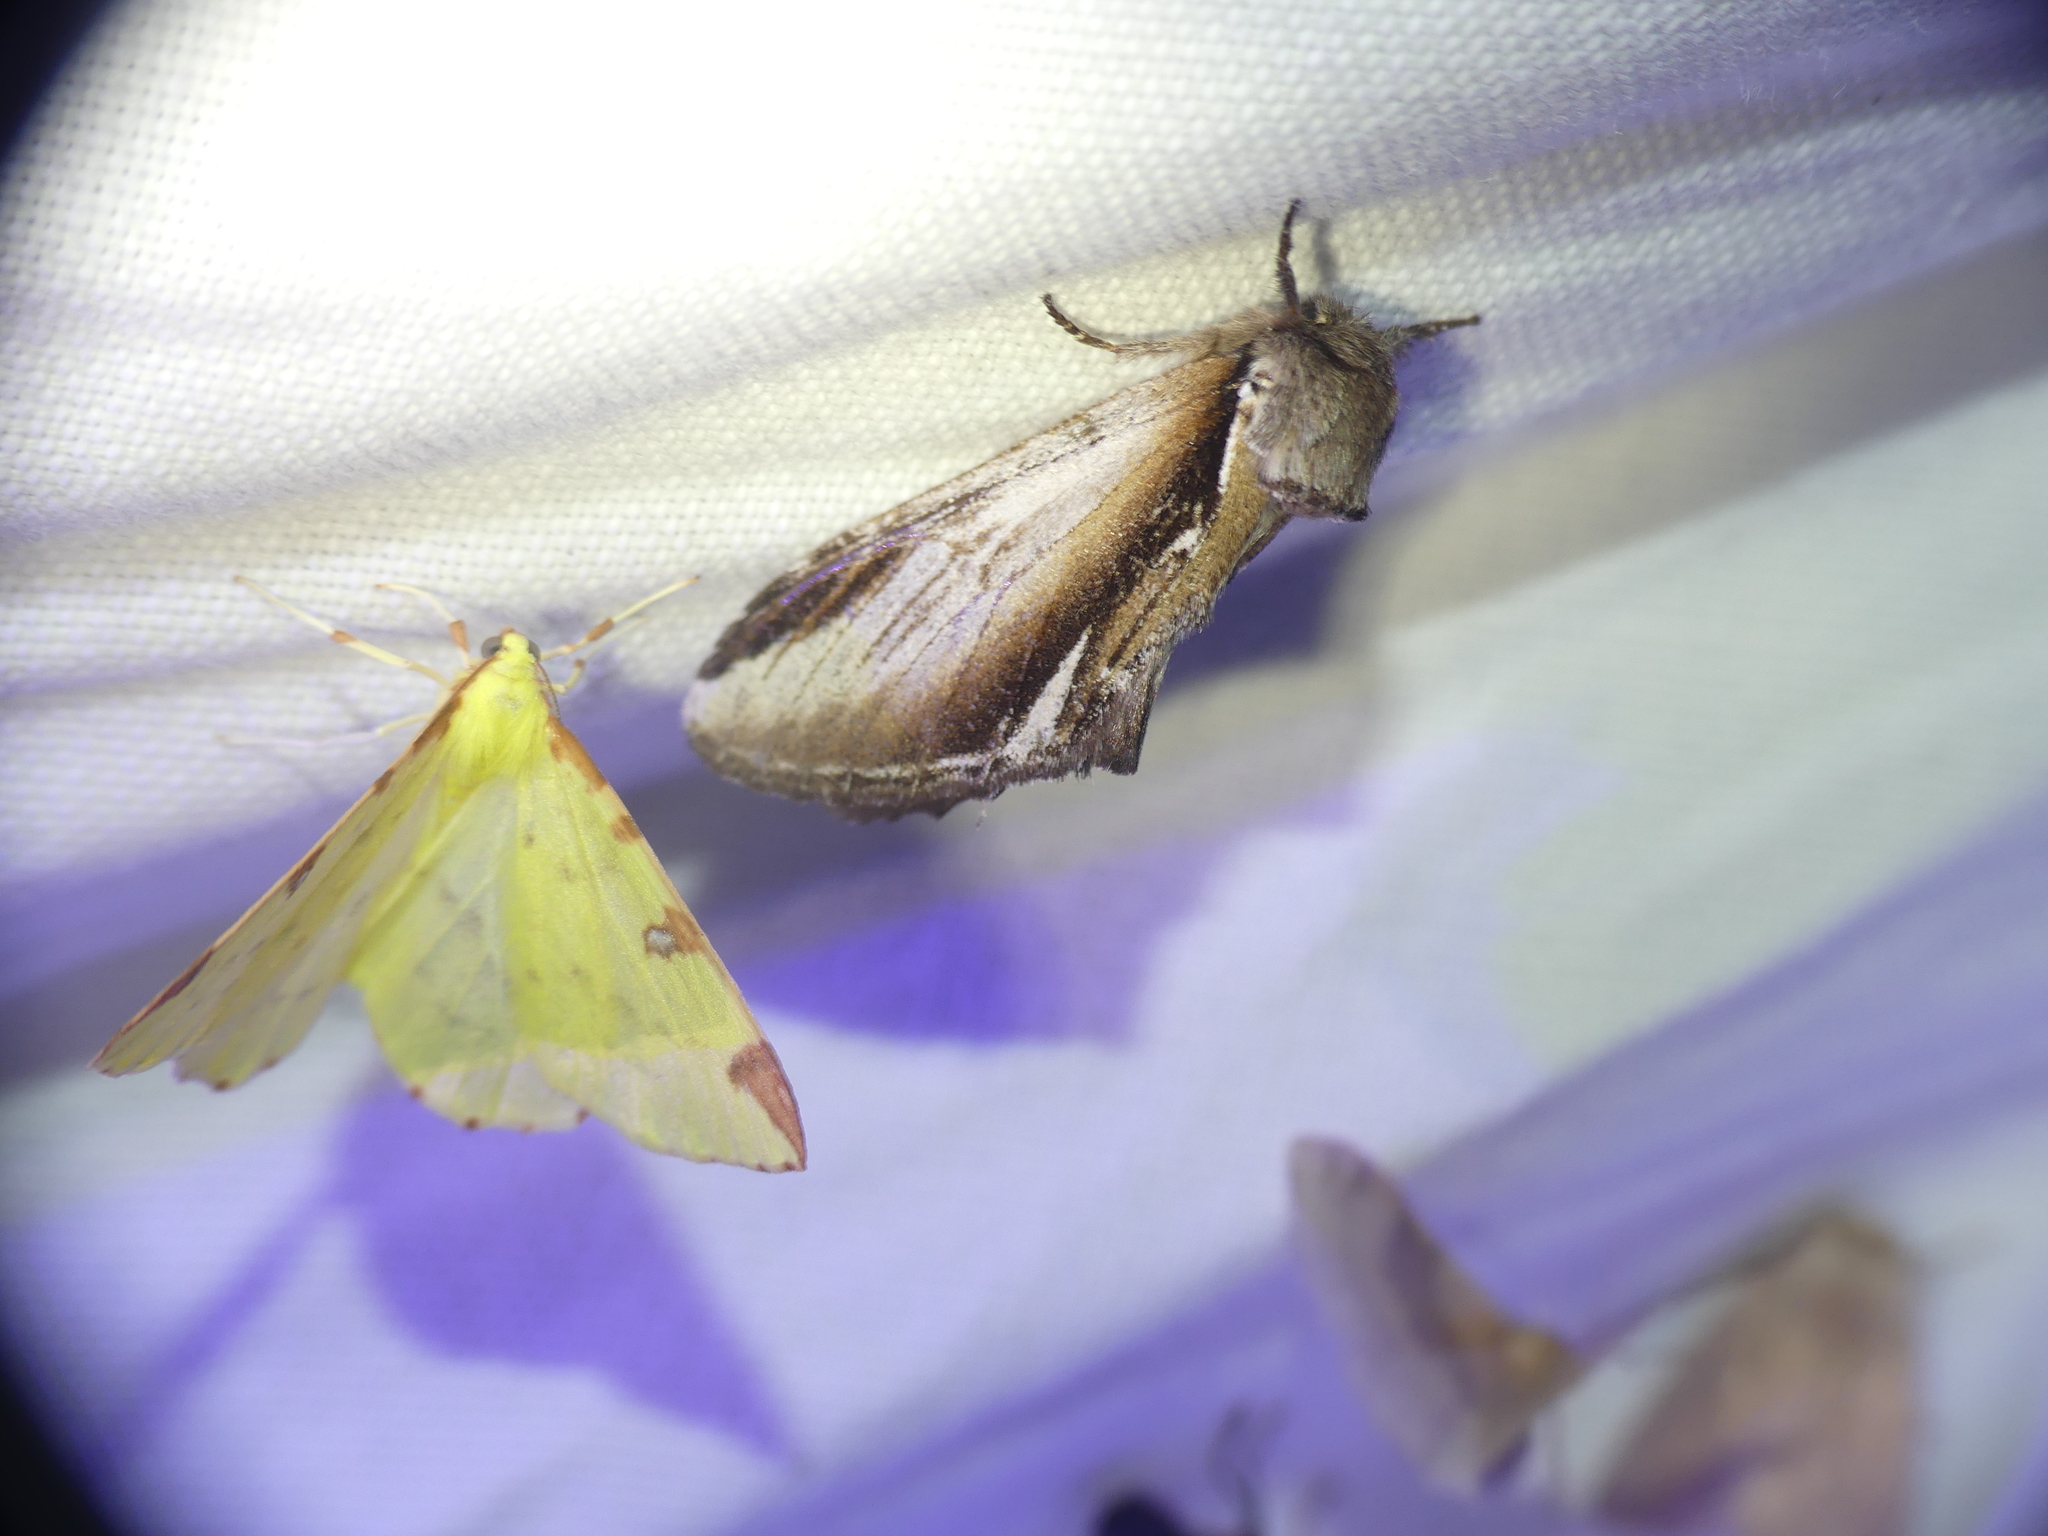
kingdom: Animalia
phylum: Arthropoda
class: Insecta
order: Lepidoptera
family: Notodontidae
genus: Pheosia
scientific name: Pheosia gnoma
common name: Lesser swallow prominent
